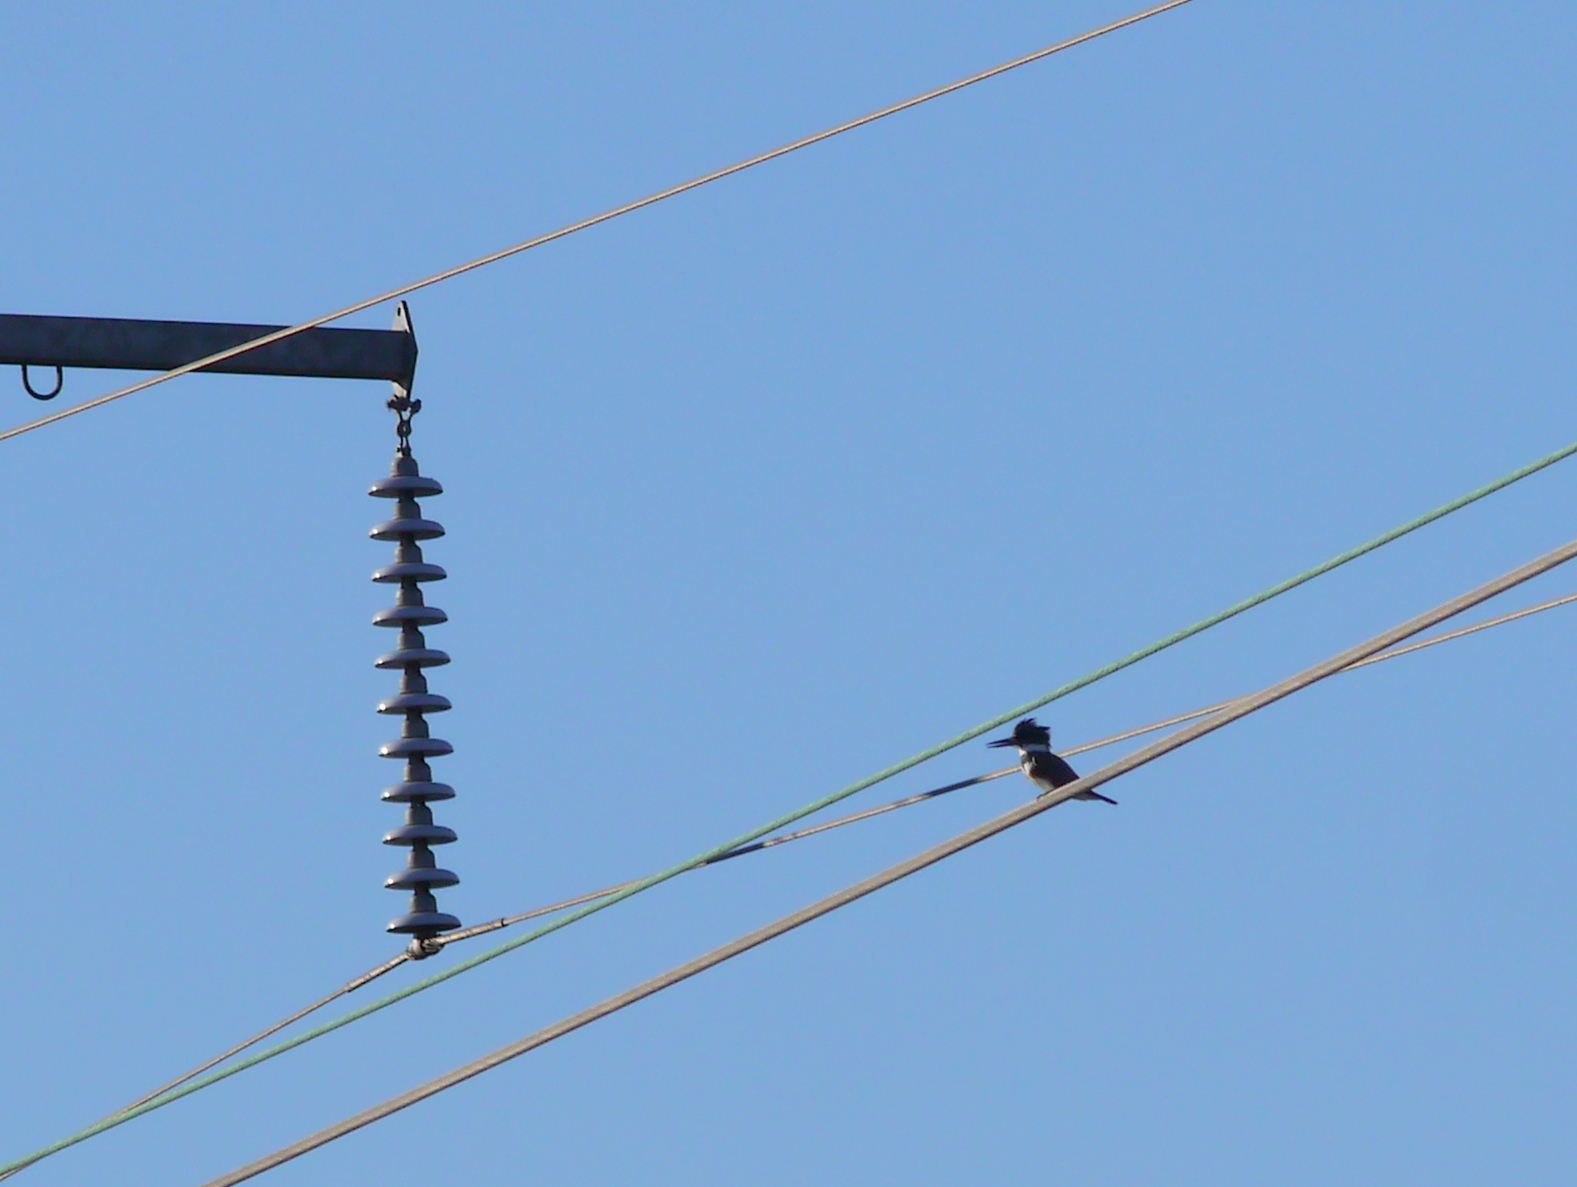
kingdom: Animalia
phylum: Chordata
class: Aves
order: Coraciiformes
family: Alcedinidae
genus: Megaceryle
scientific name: Megaceryle alcyon
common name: Belted kingfisher
